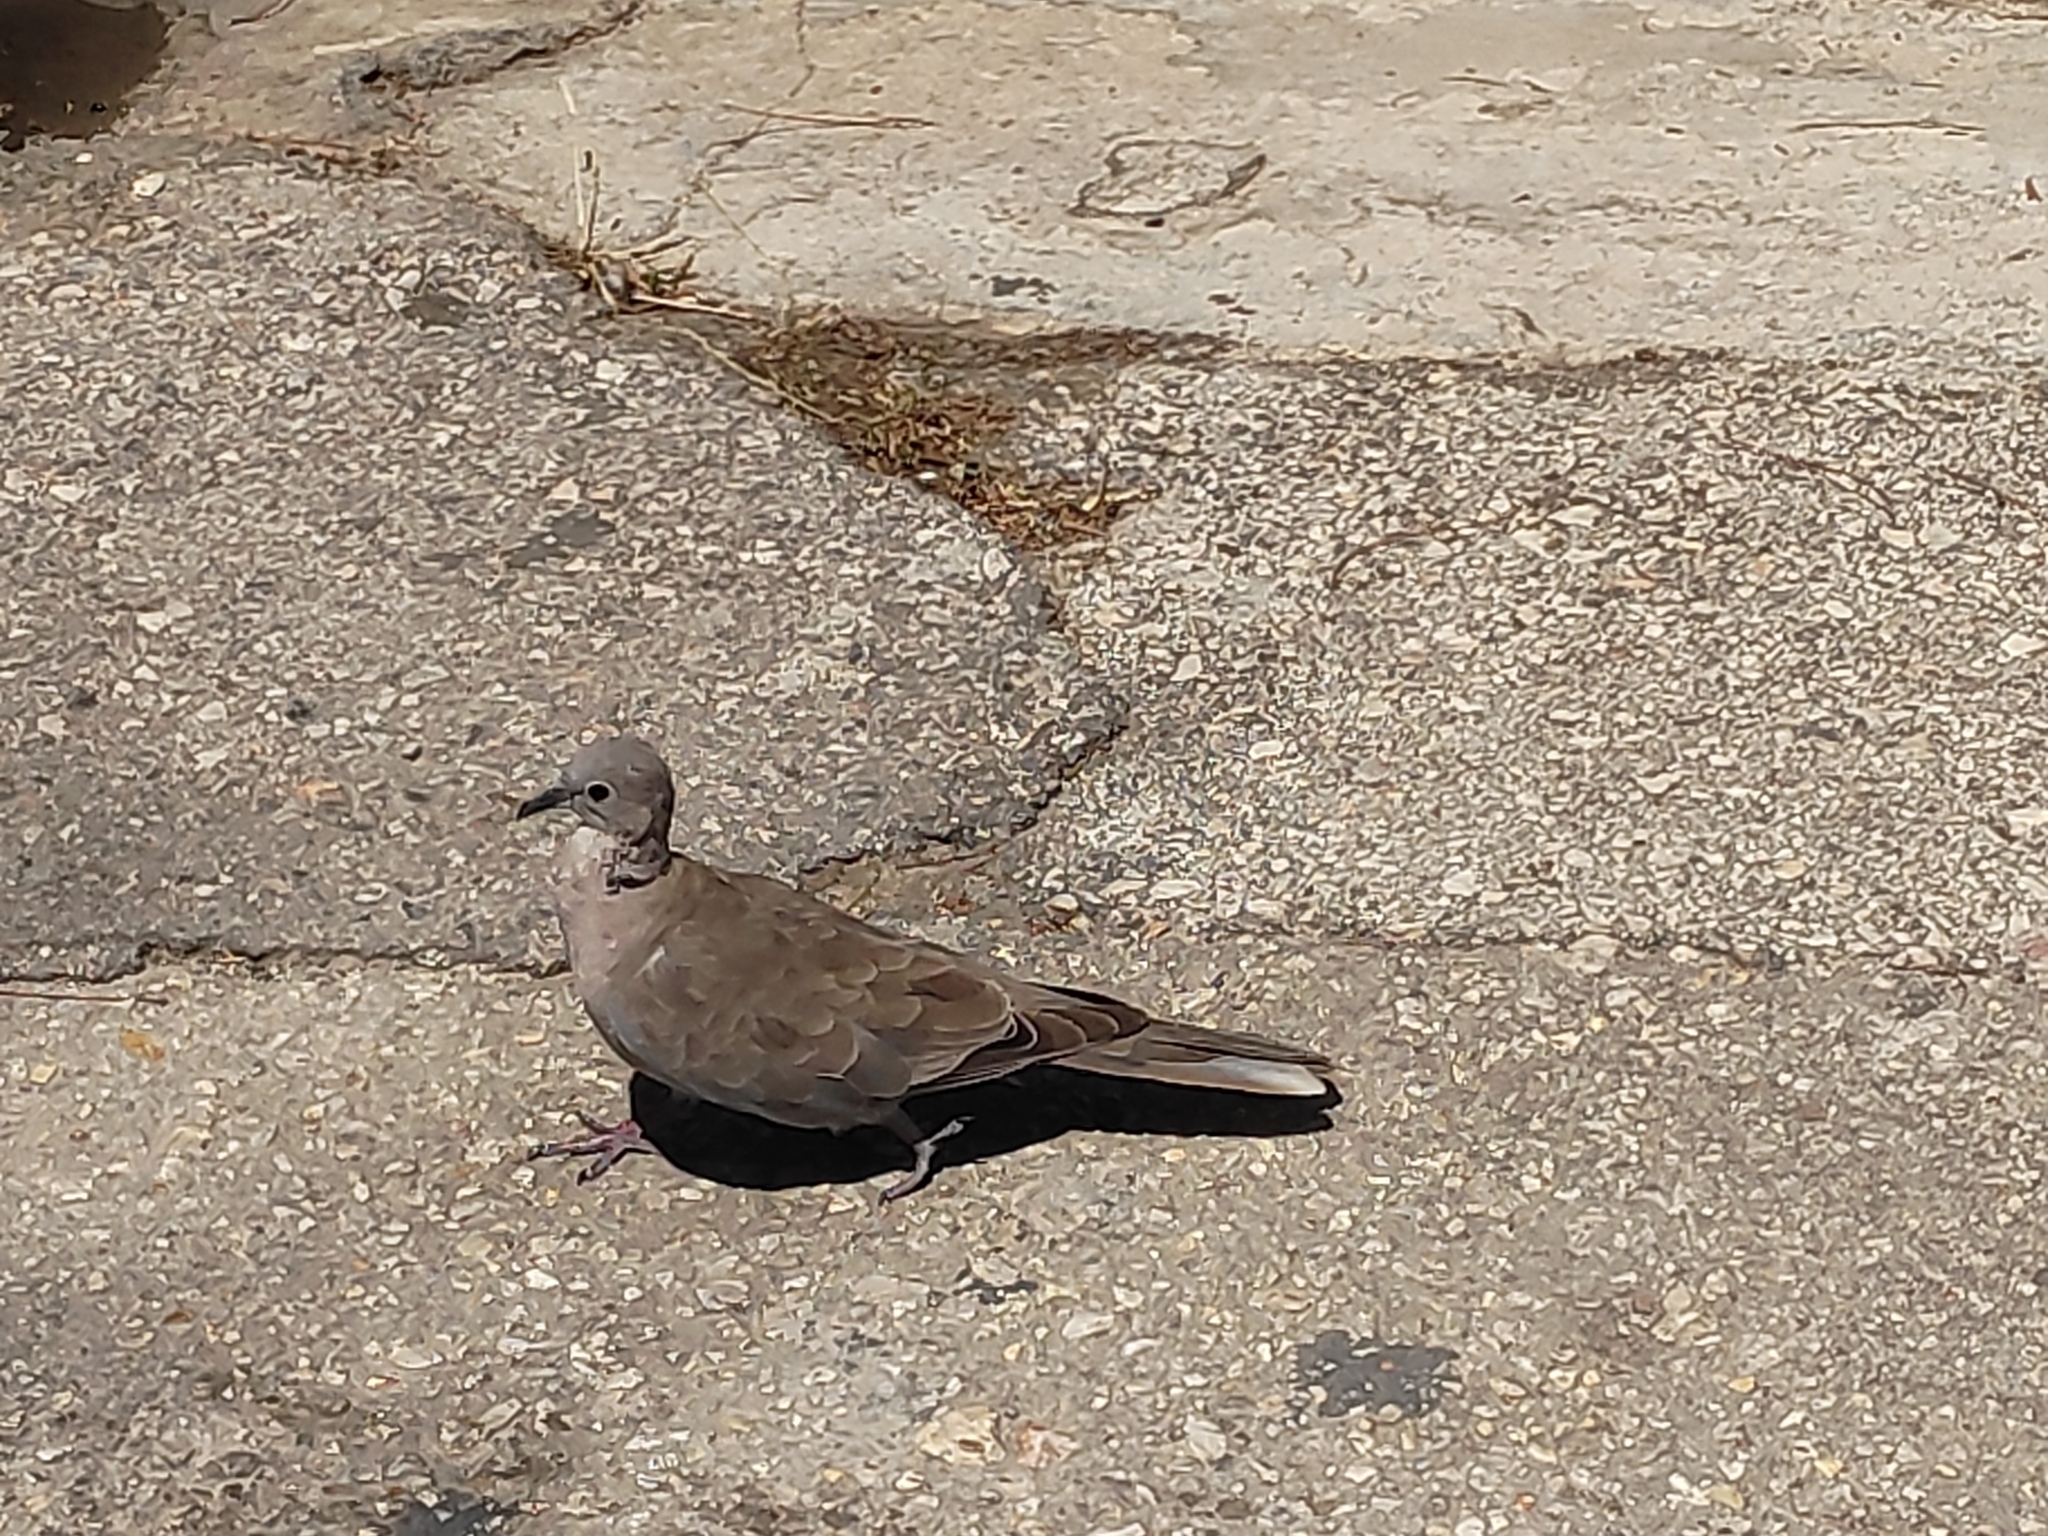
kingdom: Animalia
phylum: Chordata
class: Aves
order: Columbiformes
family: Columbidae
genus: Streptopelia
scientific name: Streptopelia decaocto
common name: Eurasian collared dove
